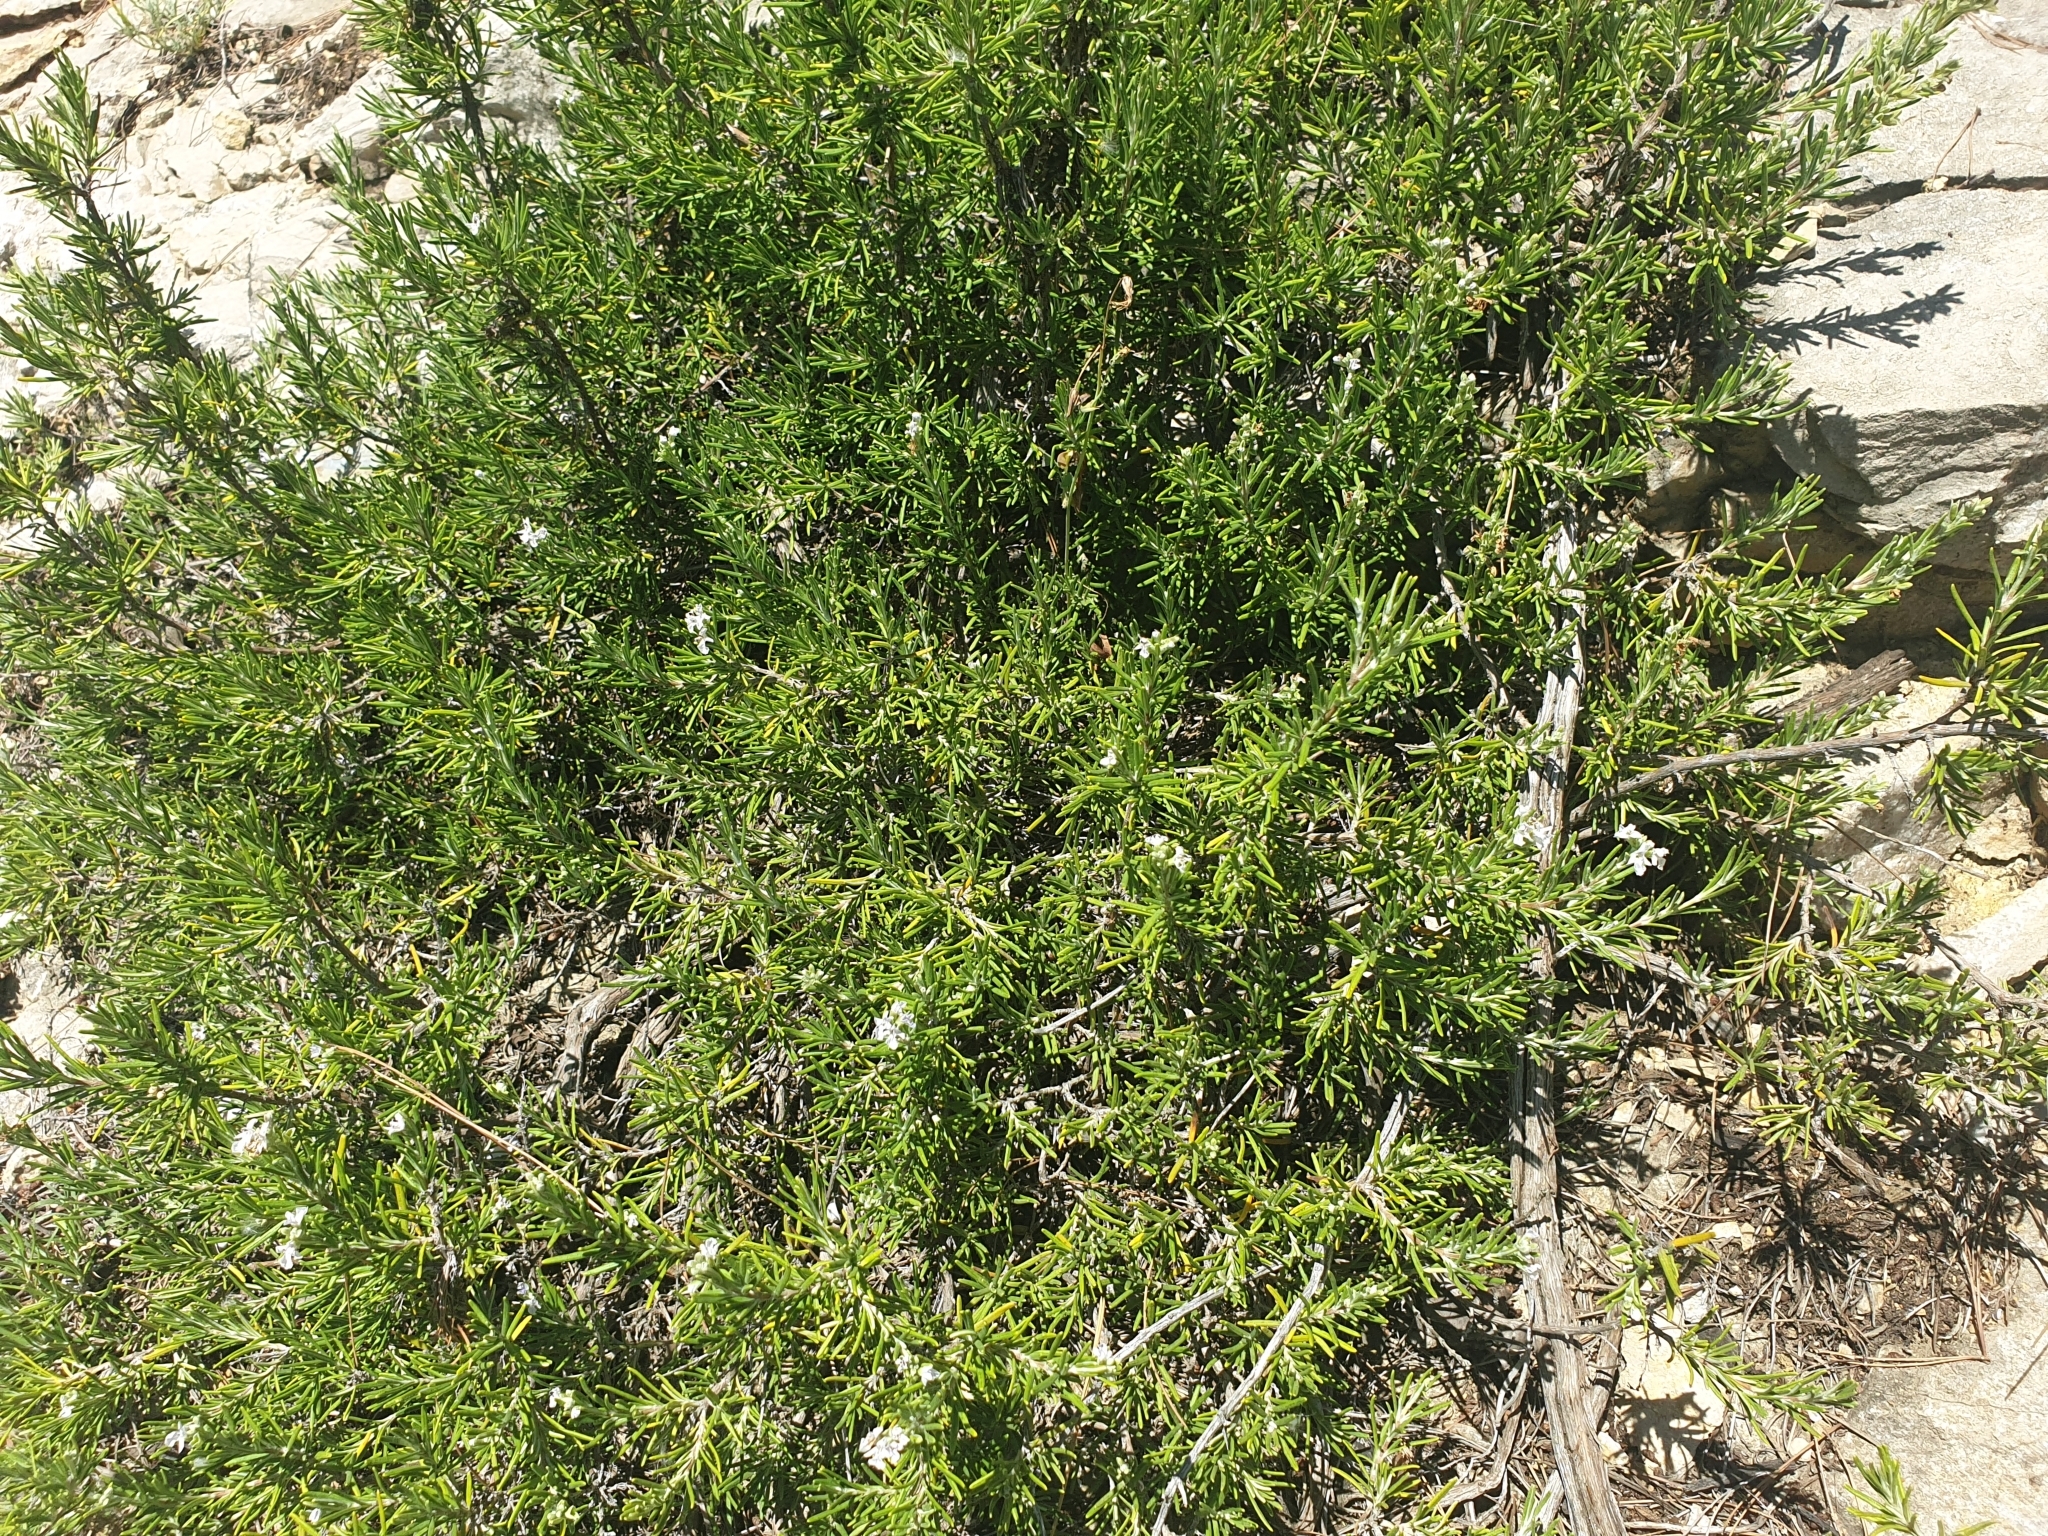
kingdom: Plantae
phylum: Tracheophyta
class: Magnoliopsida
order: Lamiales
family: Lamiaceae
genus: Salvia
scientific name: Salvia rosmarinus
